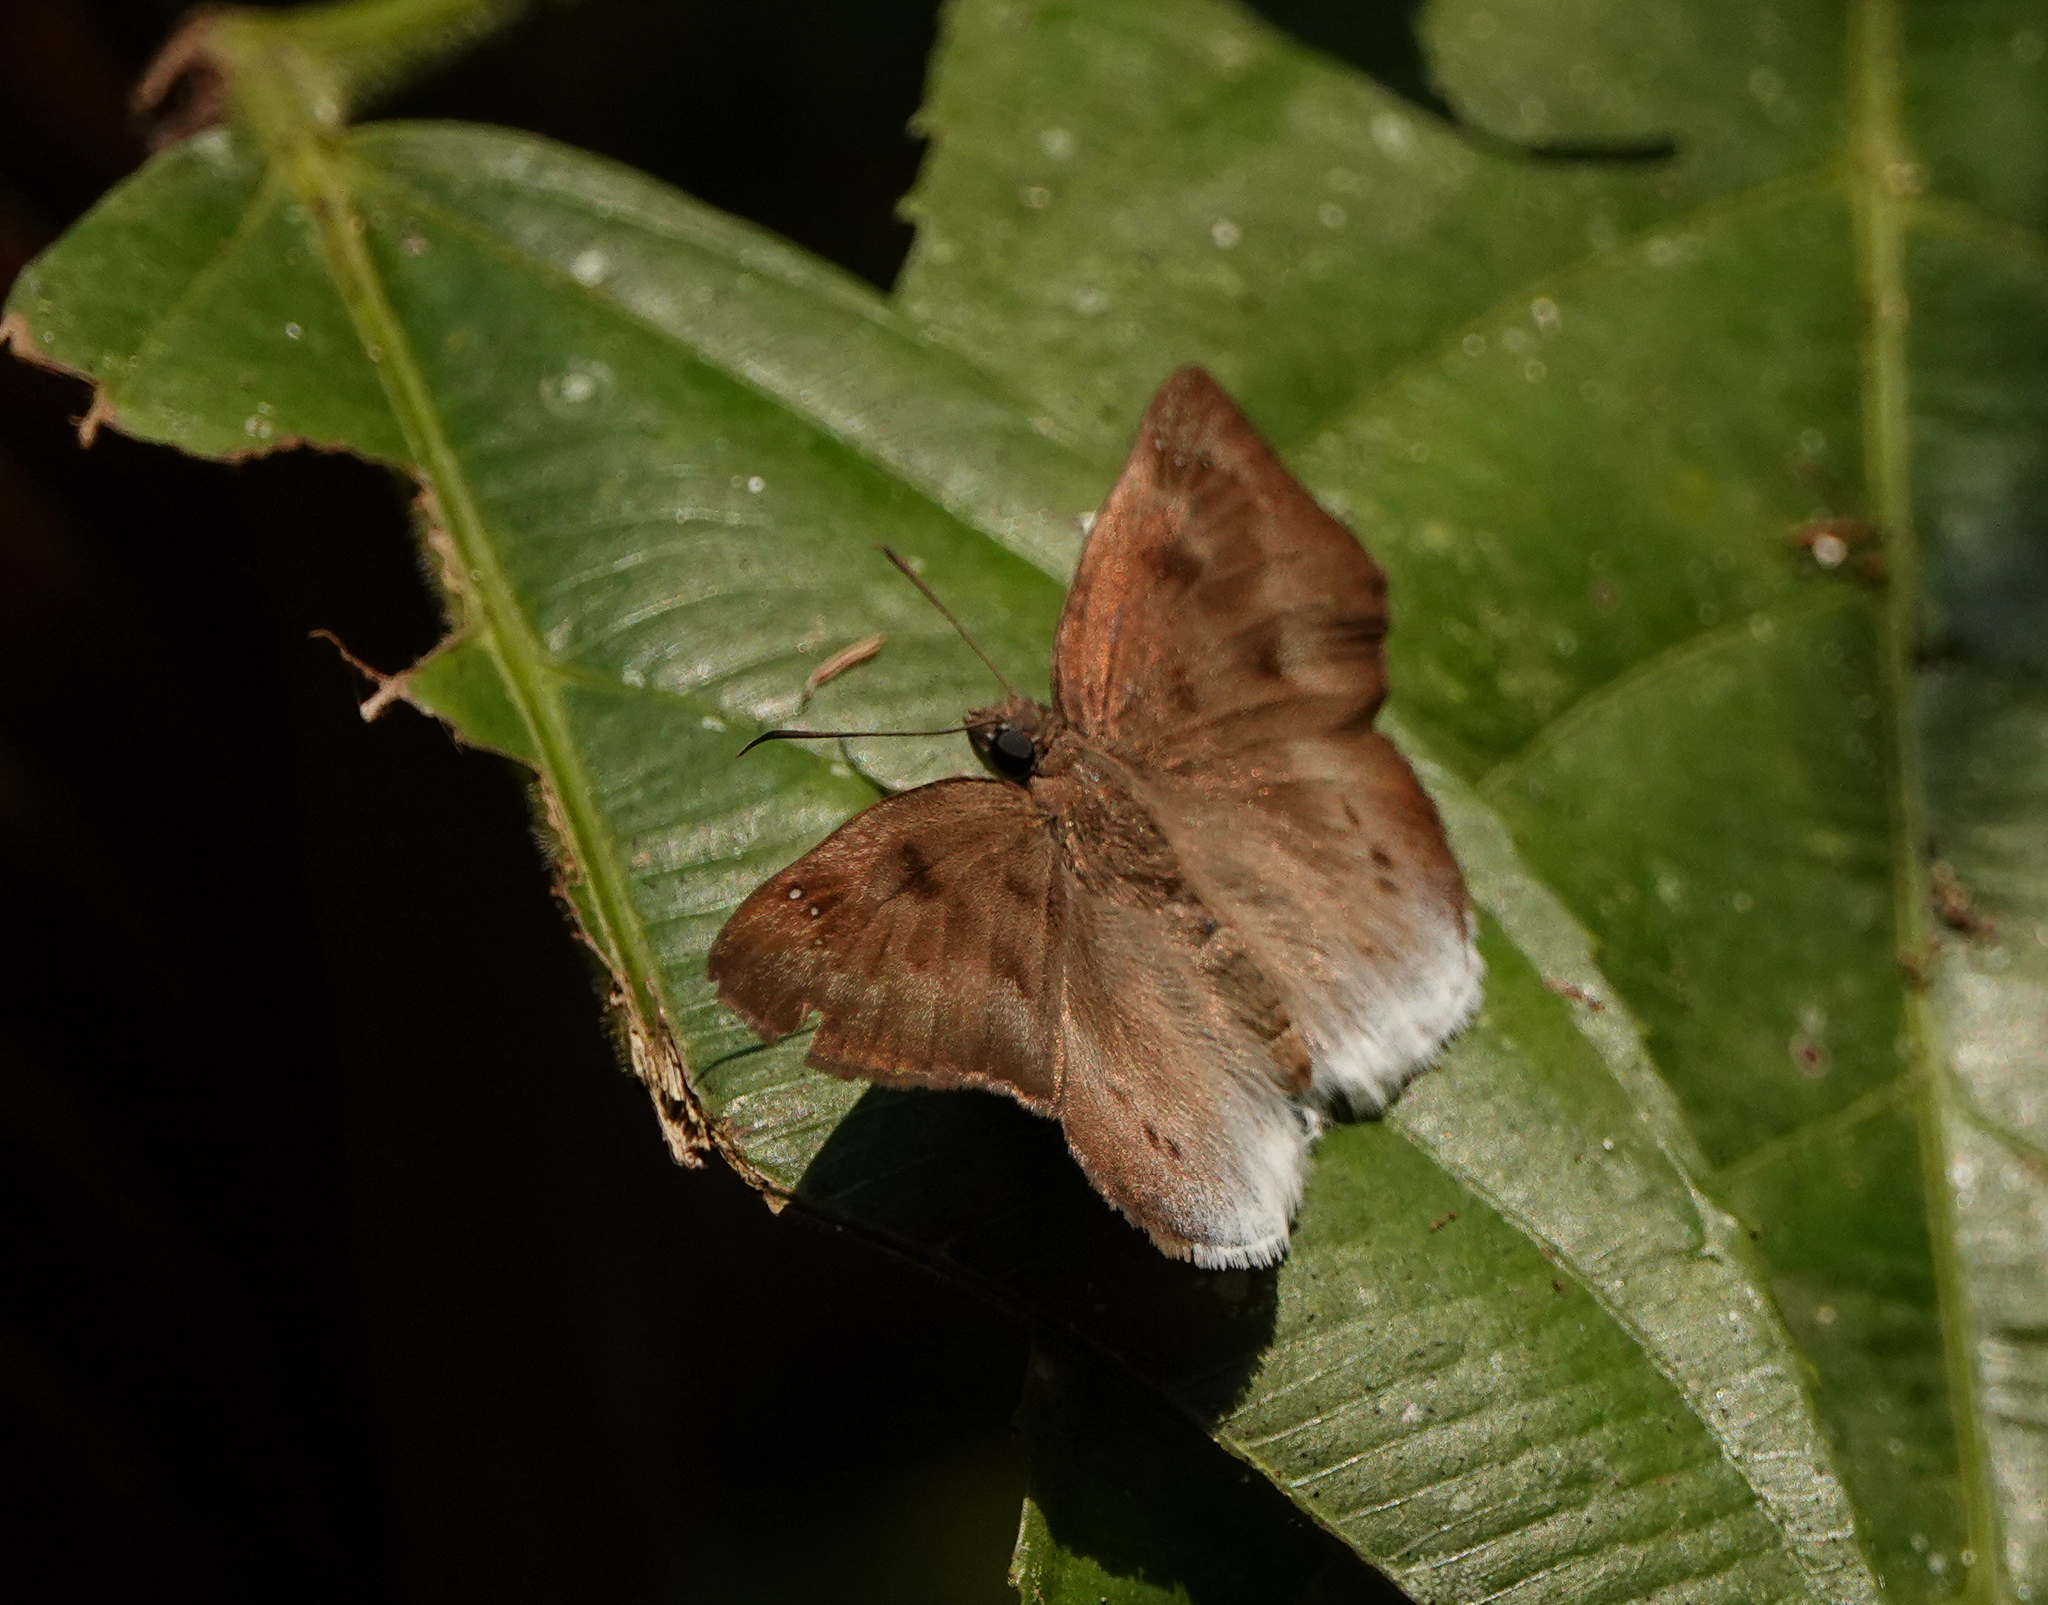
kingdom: Animalia
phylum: Arthropoda
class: Insecta
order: Lepidoptera
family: Hesperiidae
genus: Tagiades
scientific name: Tagiades gana
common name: Suffused snow flat
